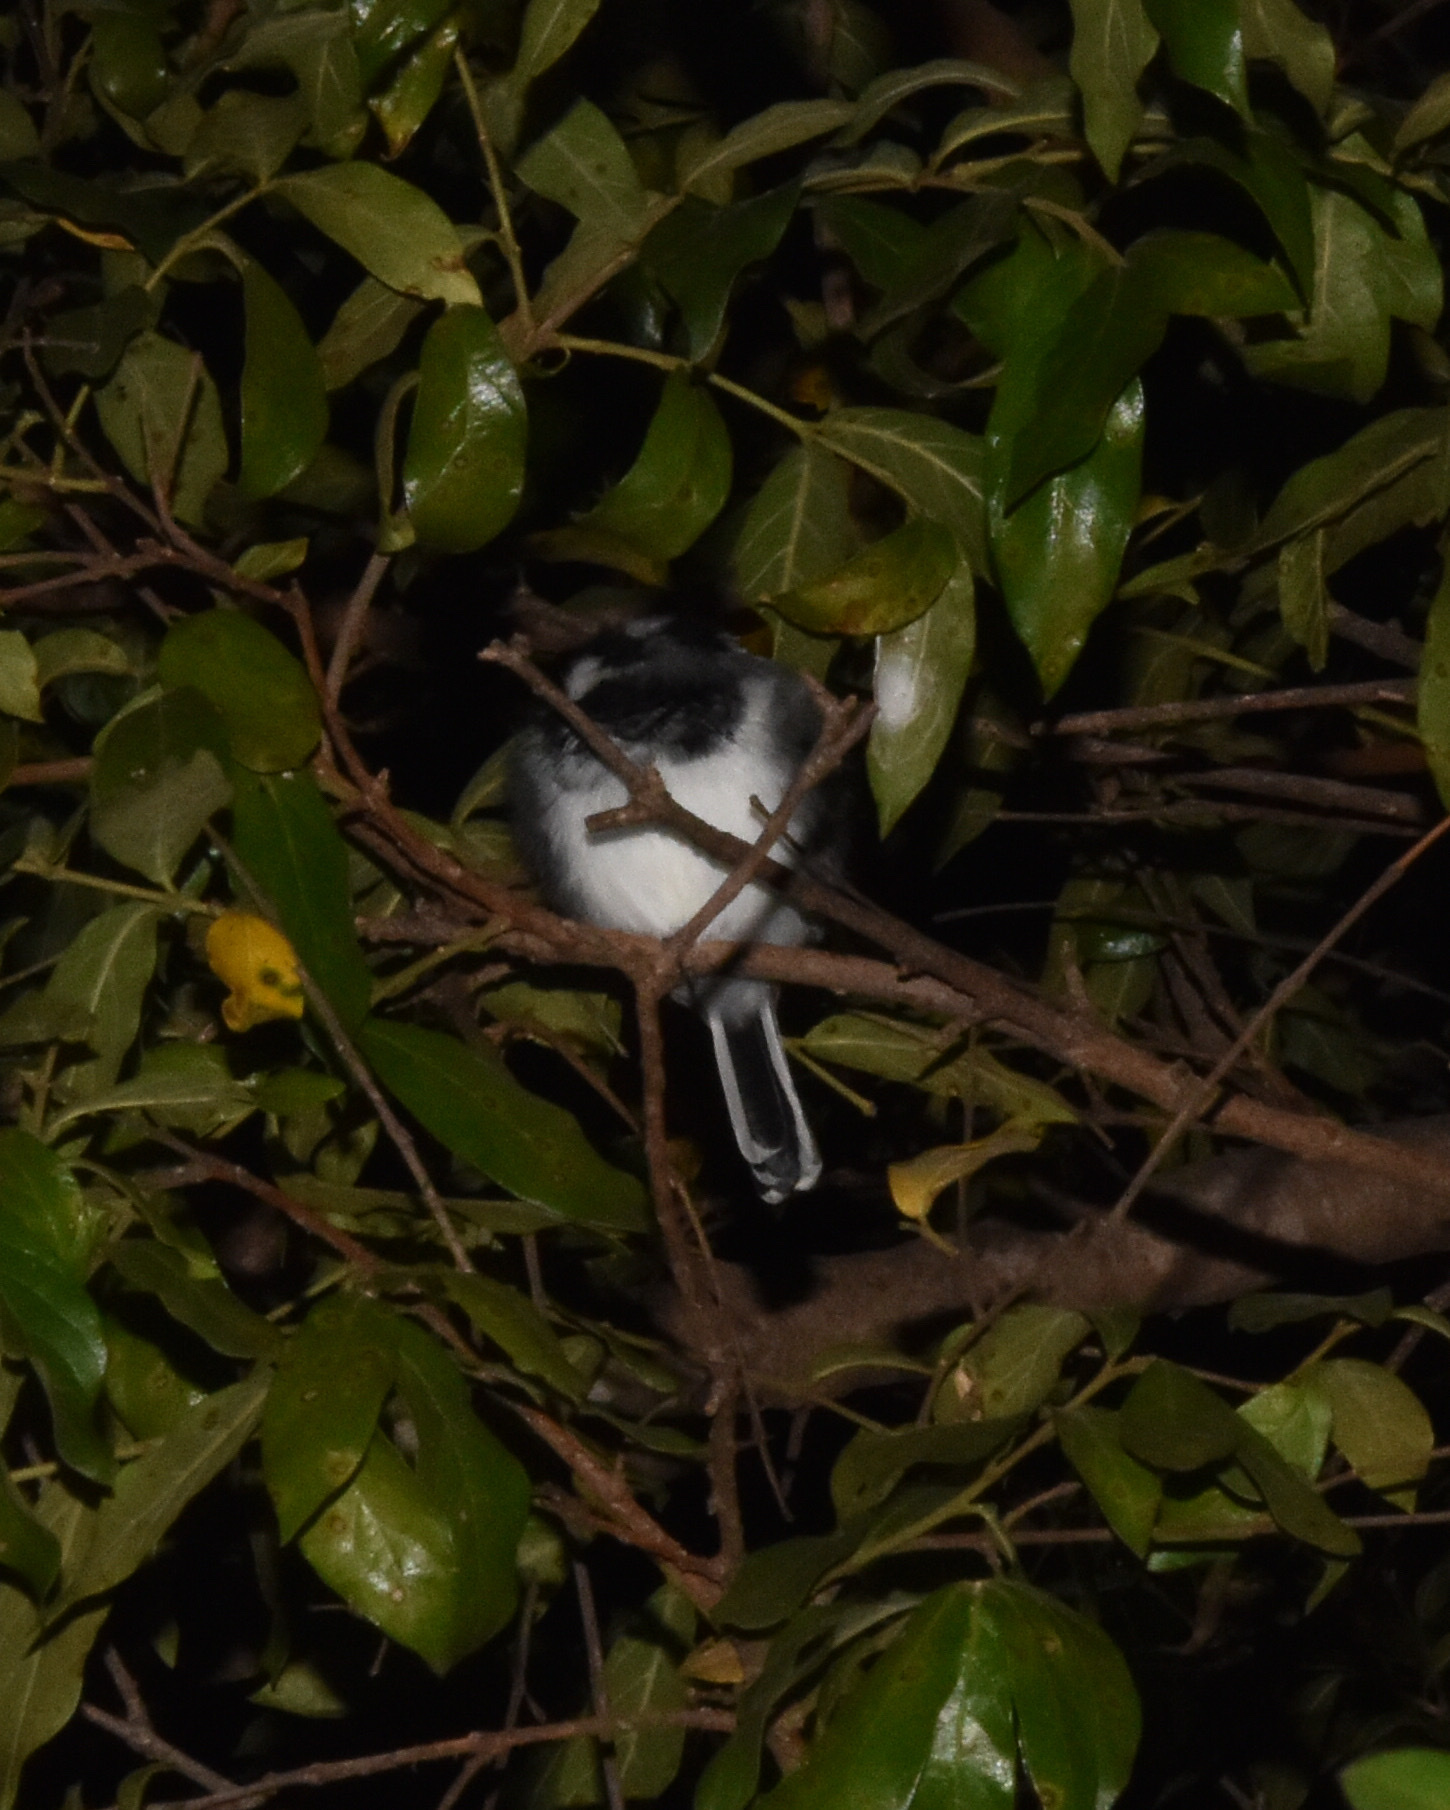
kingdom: Animalia
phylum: Chordata
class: Aves
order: Passeriformes
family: Platysteiridae
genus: Batis
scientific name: Batis molitor
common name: Chinspot batis
